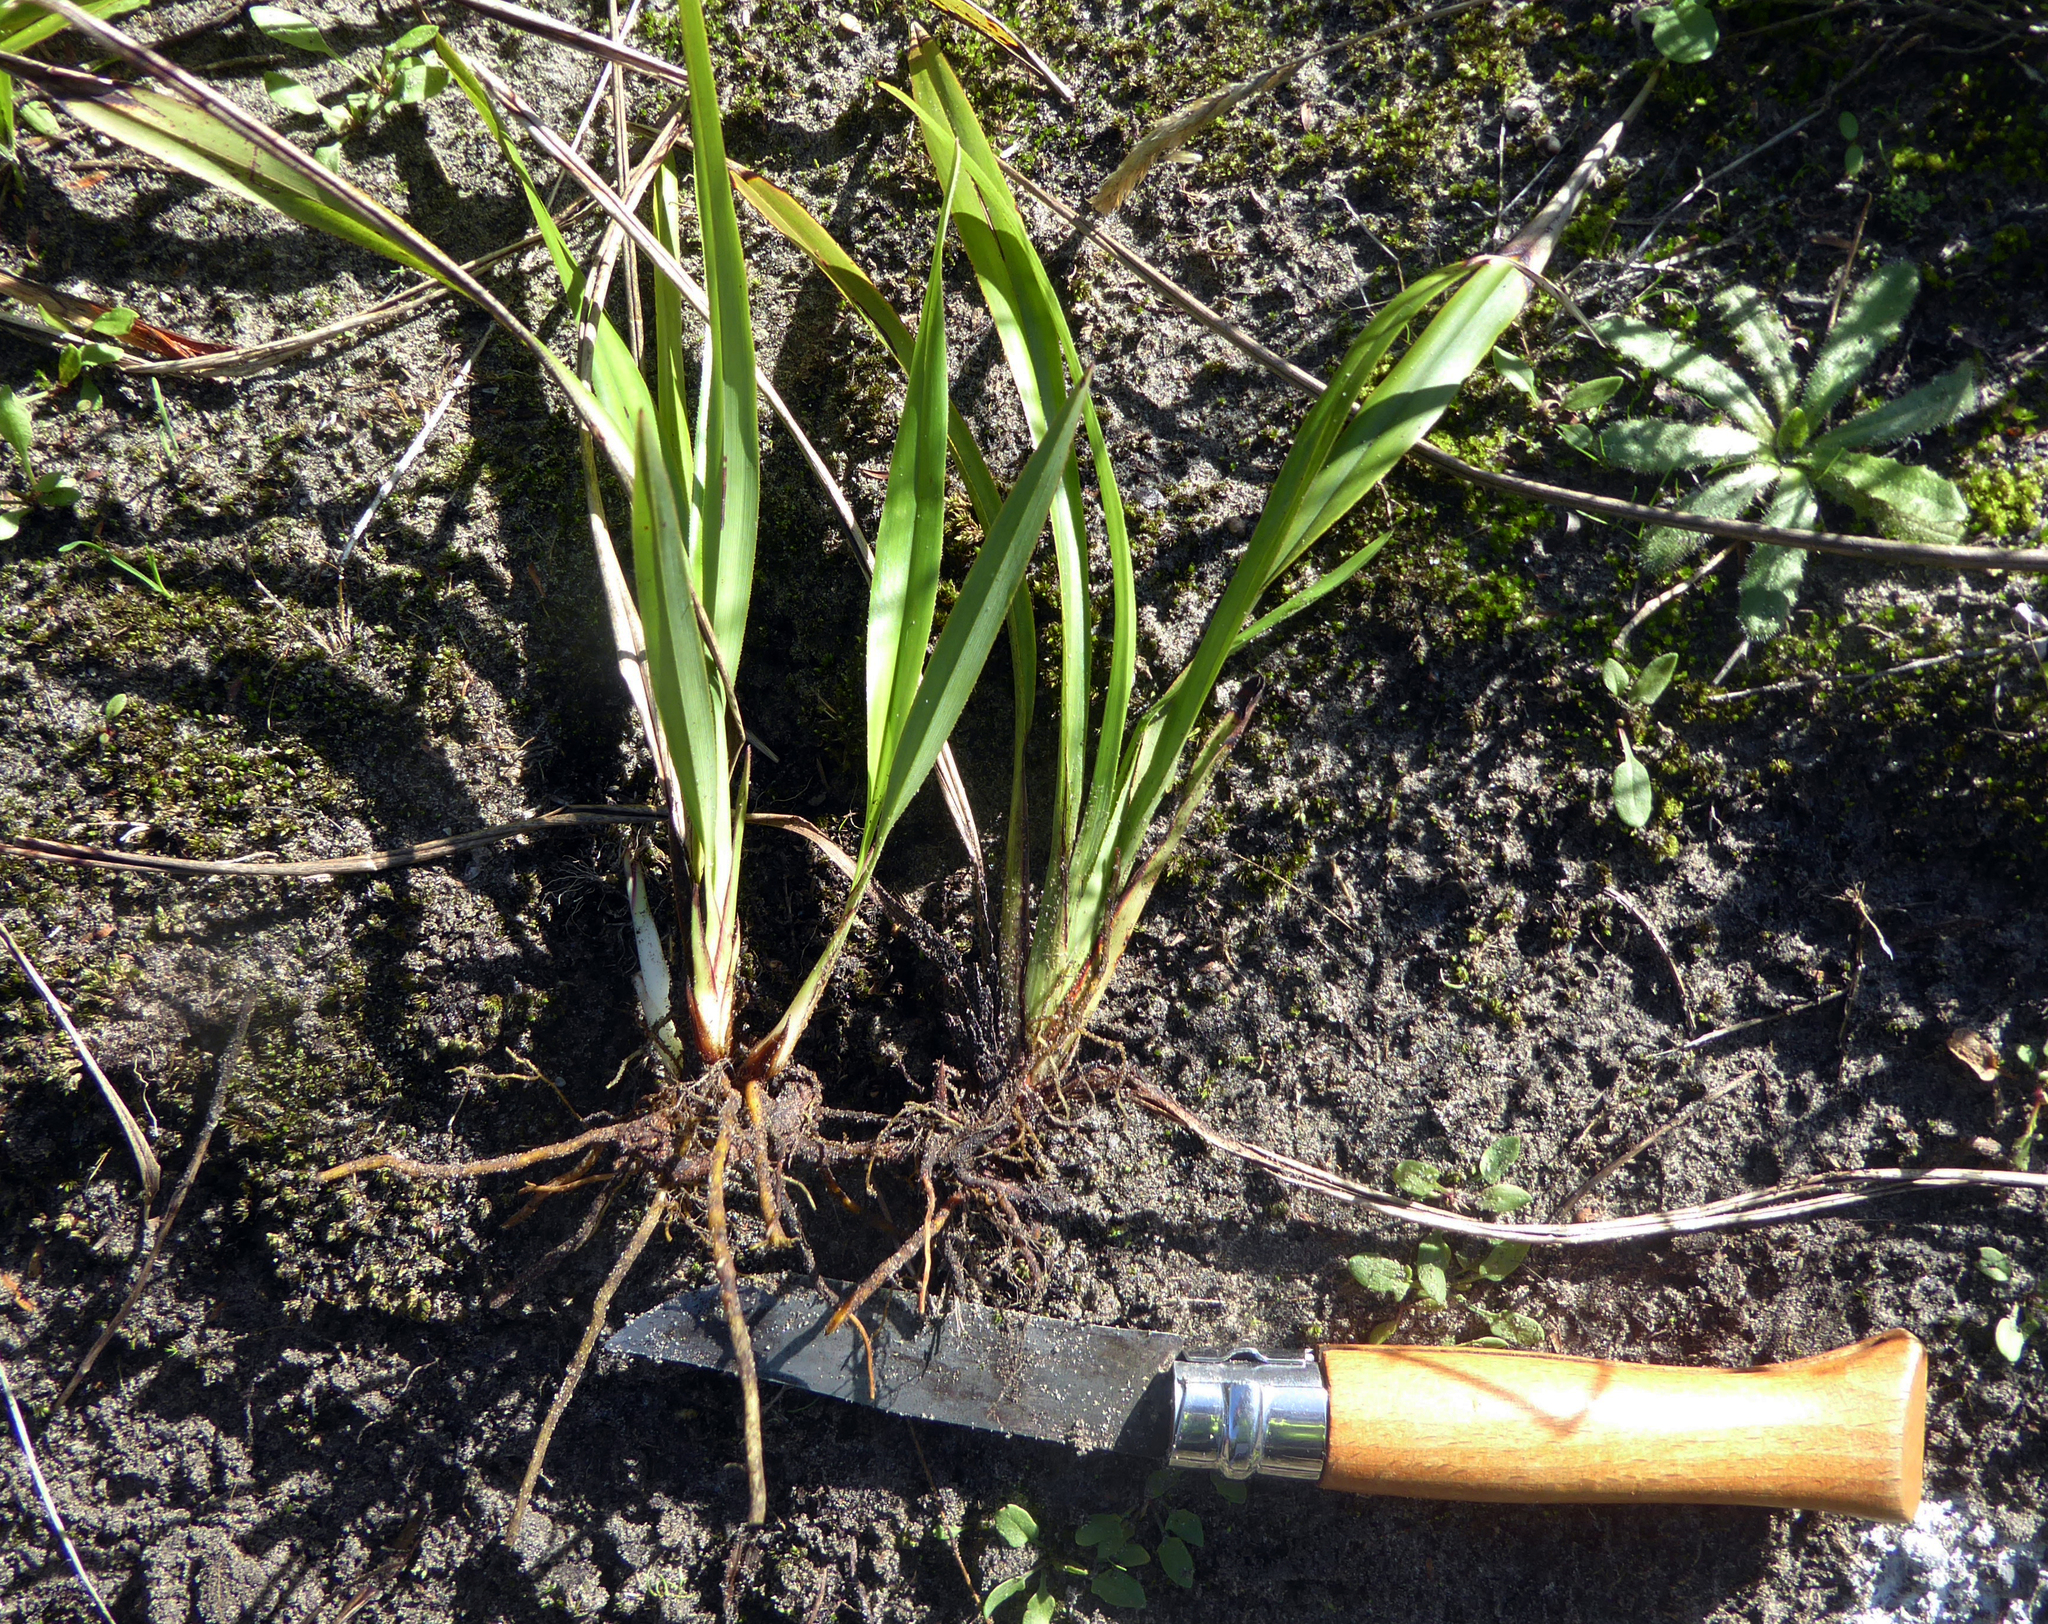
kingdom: Plantae
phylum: Tracheophyta
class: Liliopsida
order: Asparagales
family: Asphodelaceae
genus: Dianella
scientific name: Dianella nigra
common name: New zealand-blueberry
